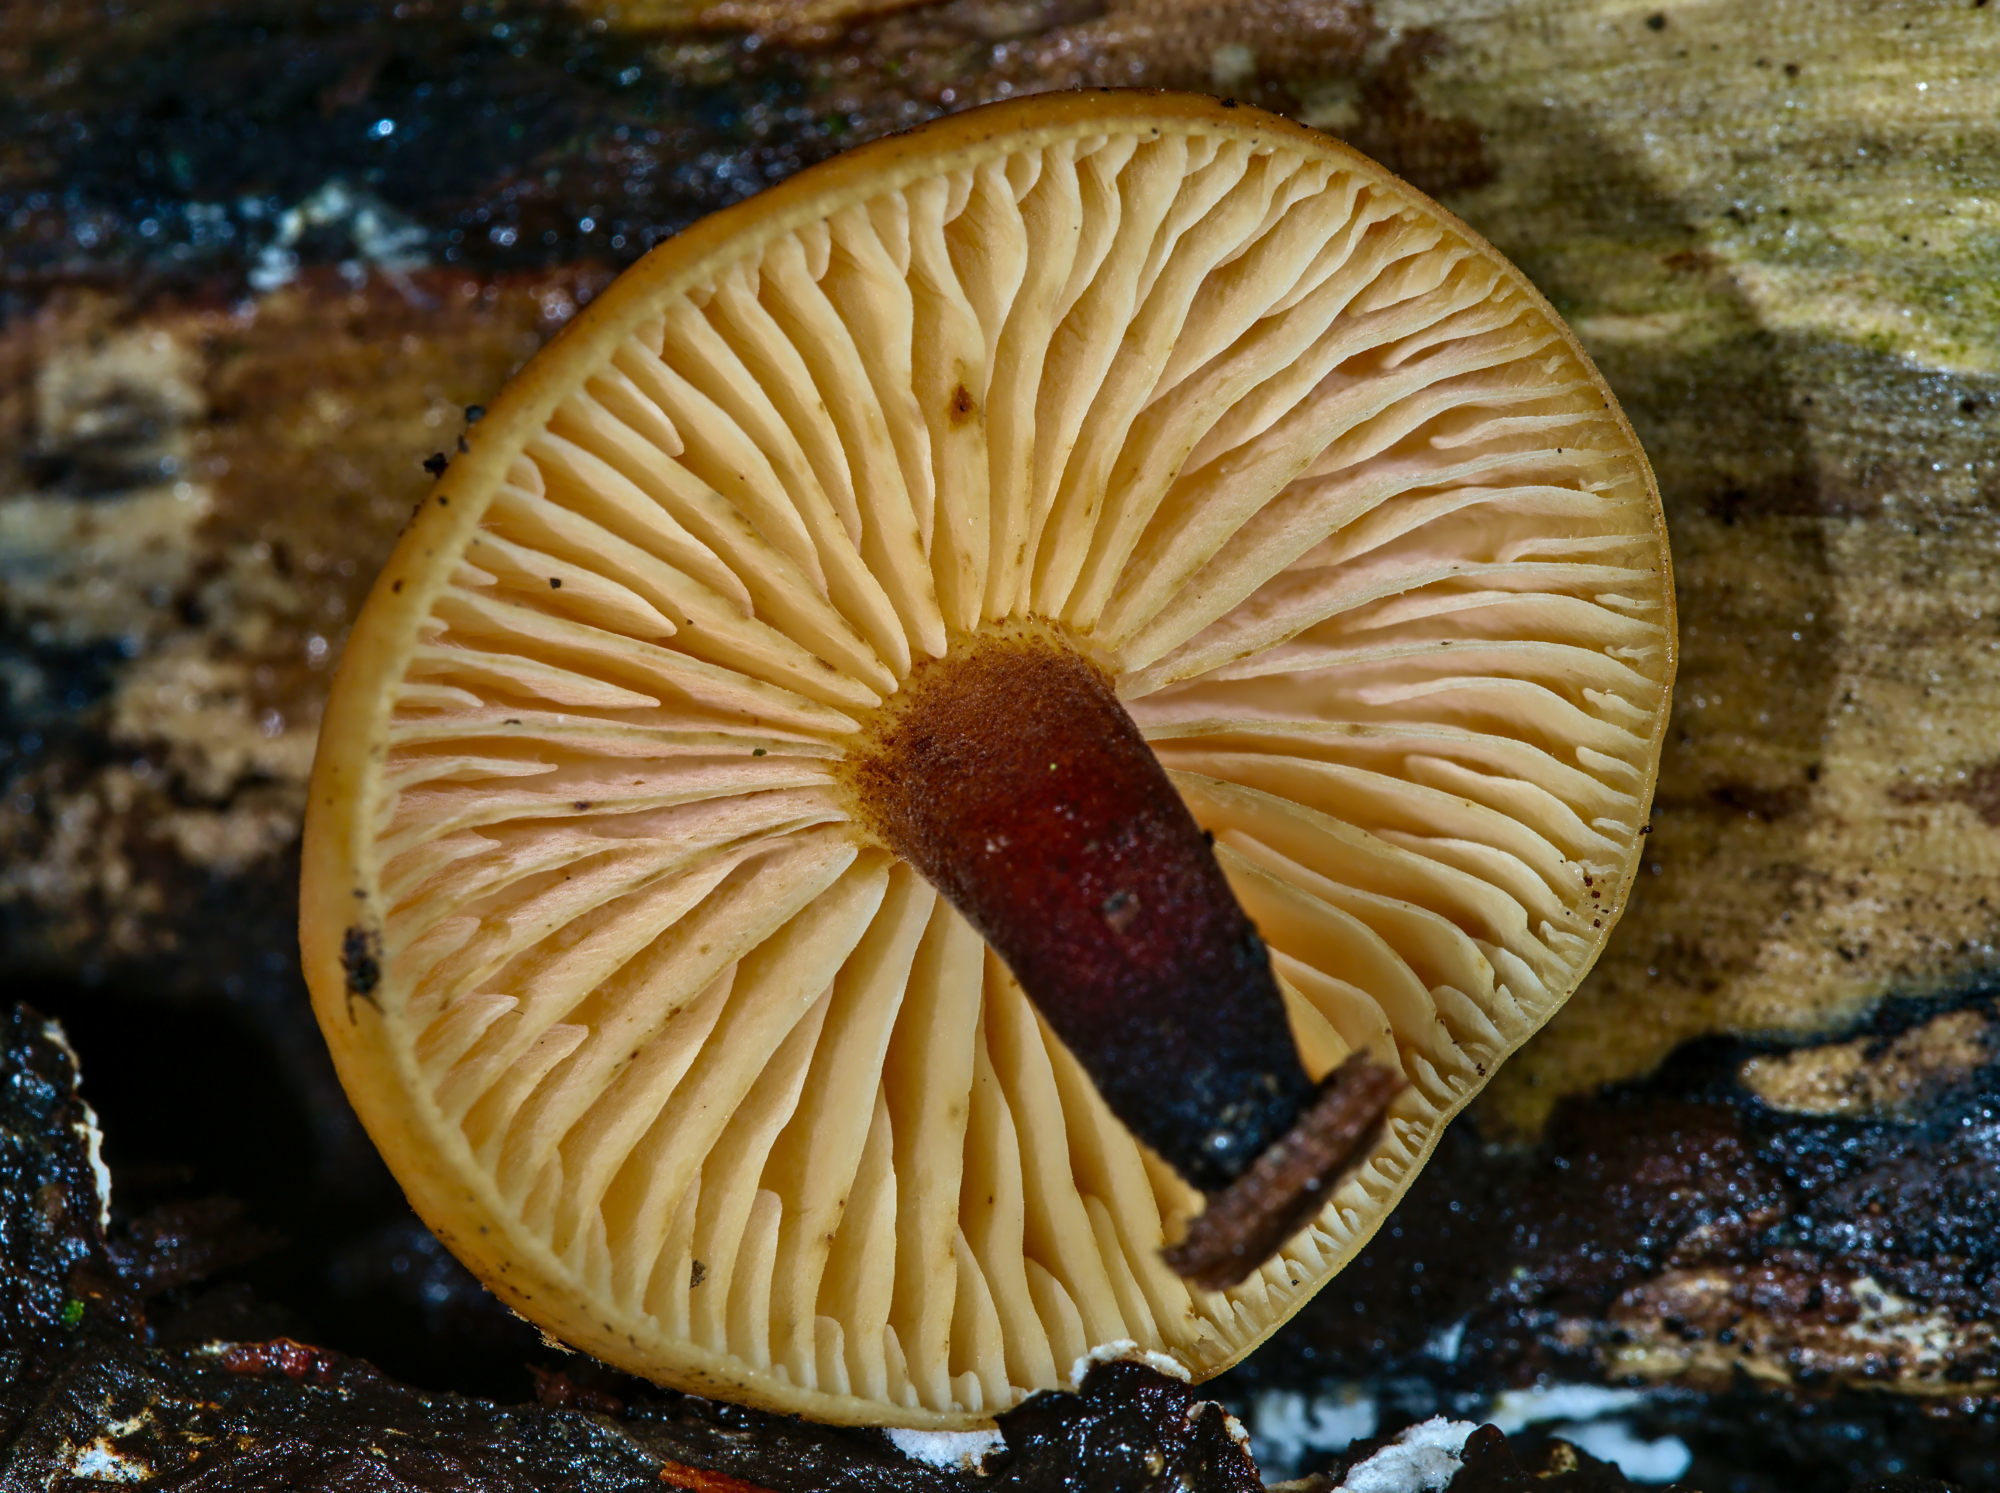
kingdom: Fungi
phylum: Basidiomycota
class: Agaricomycetes
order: Agaricales
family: Physalacriaceae
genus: Flammulina
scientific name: Flammulina
